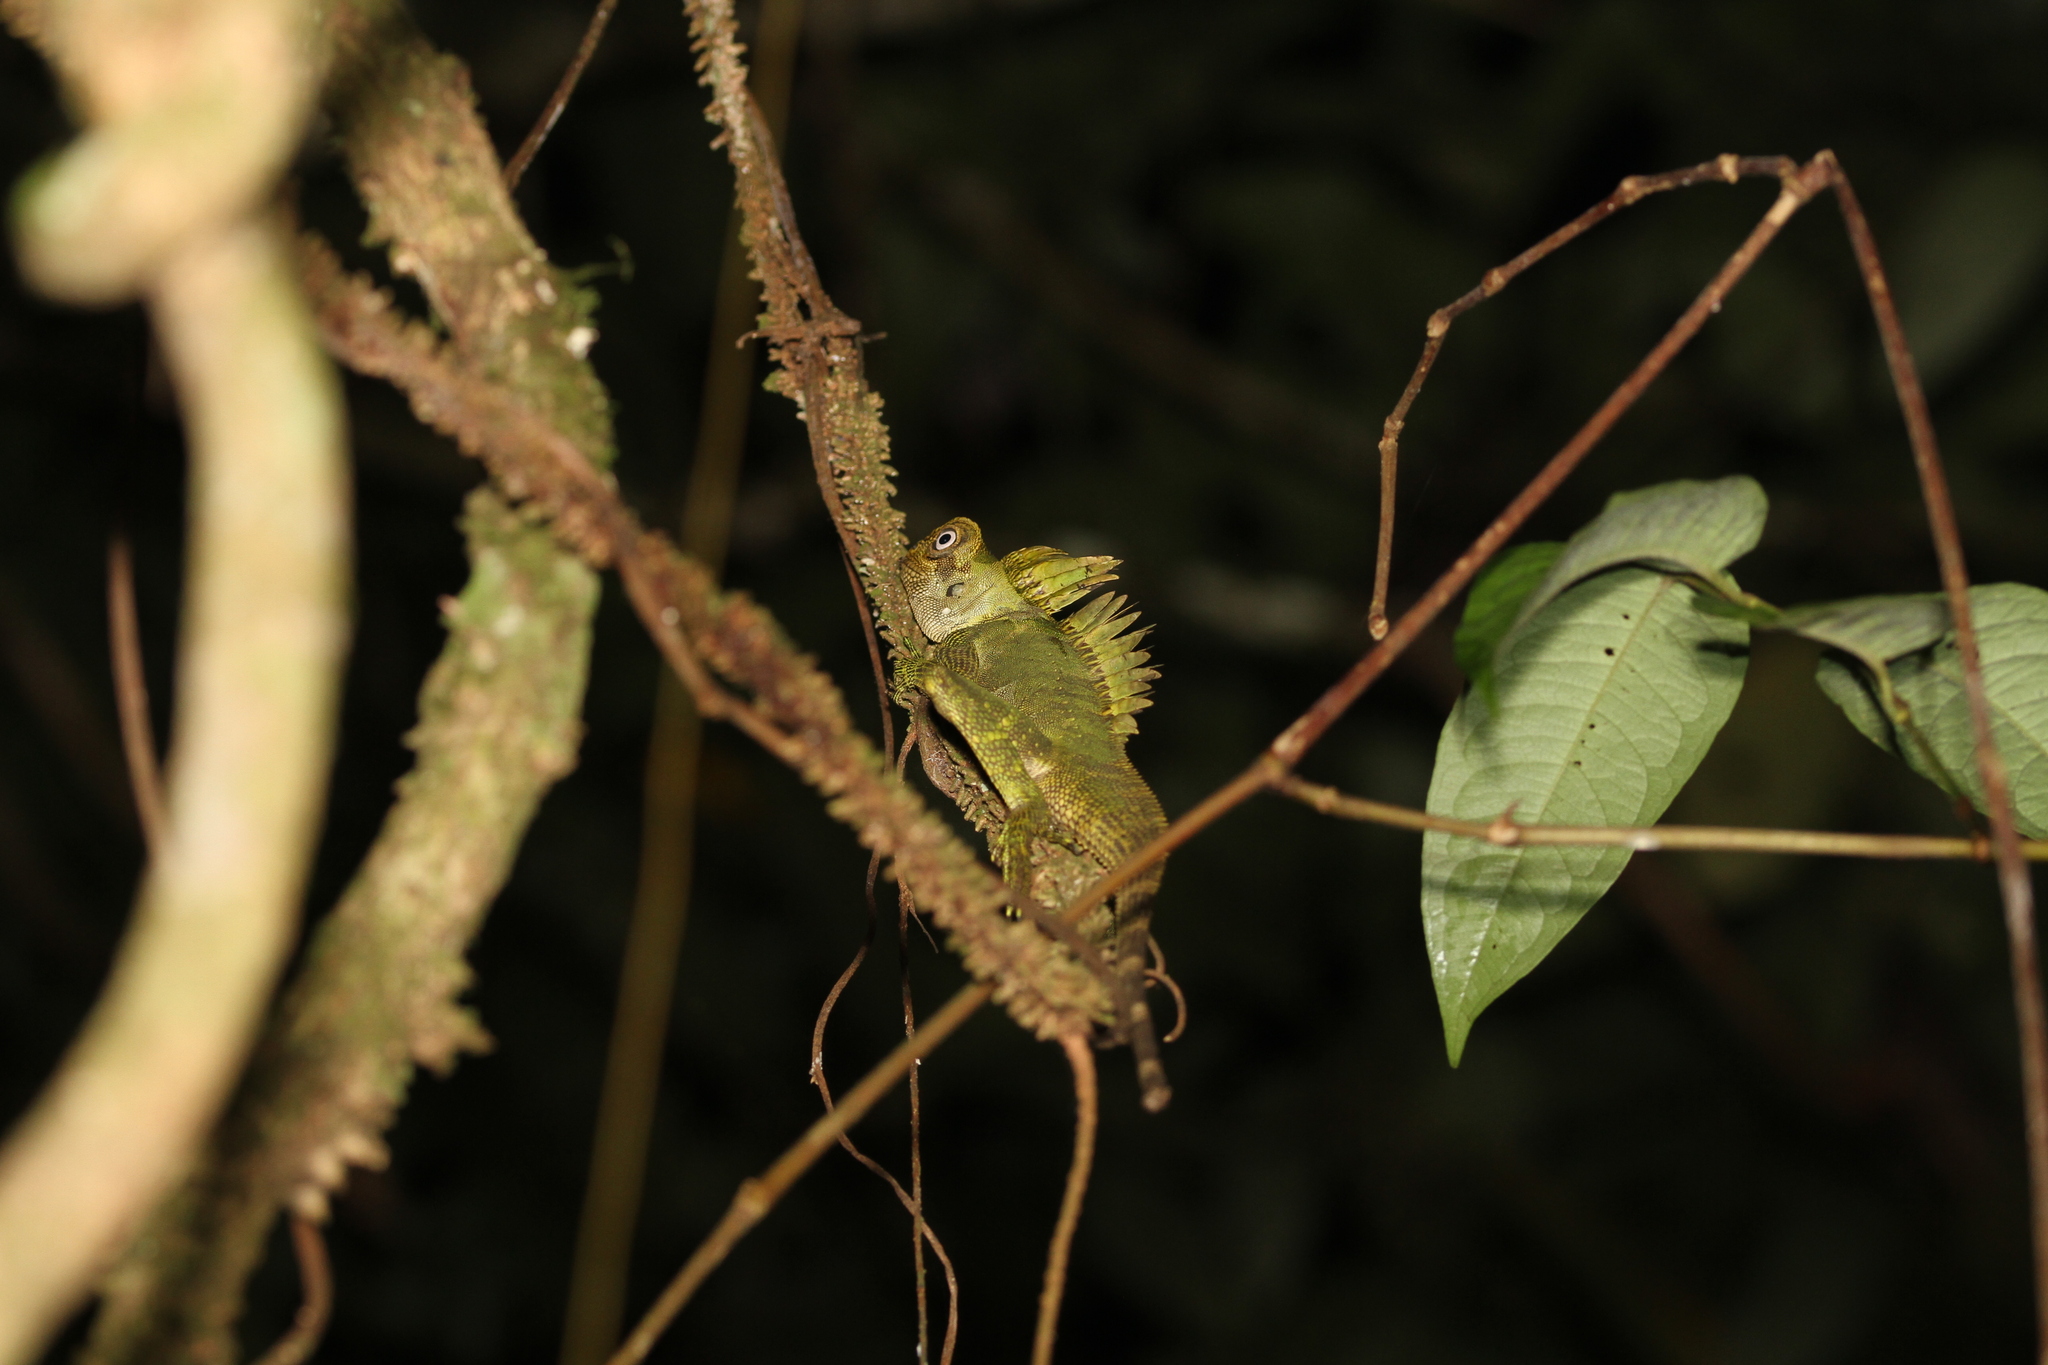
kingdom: Animalia
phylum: Chordata
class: Squamata
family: Agamidae
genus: Gonocephalus
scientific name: Gonocephalus klossi
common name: Kloss' forest dragon
